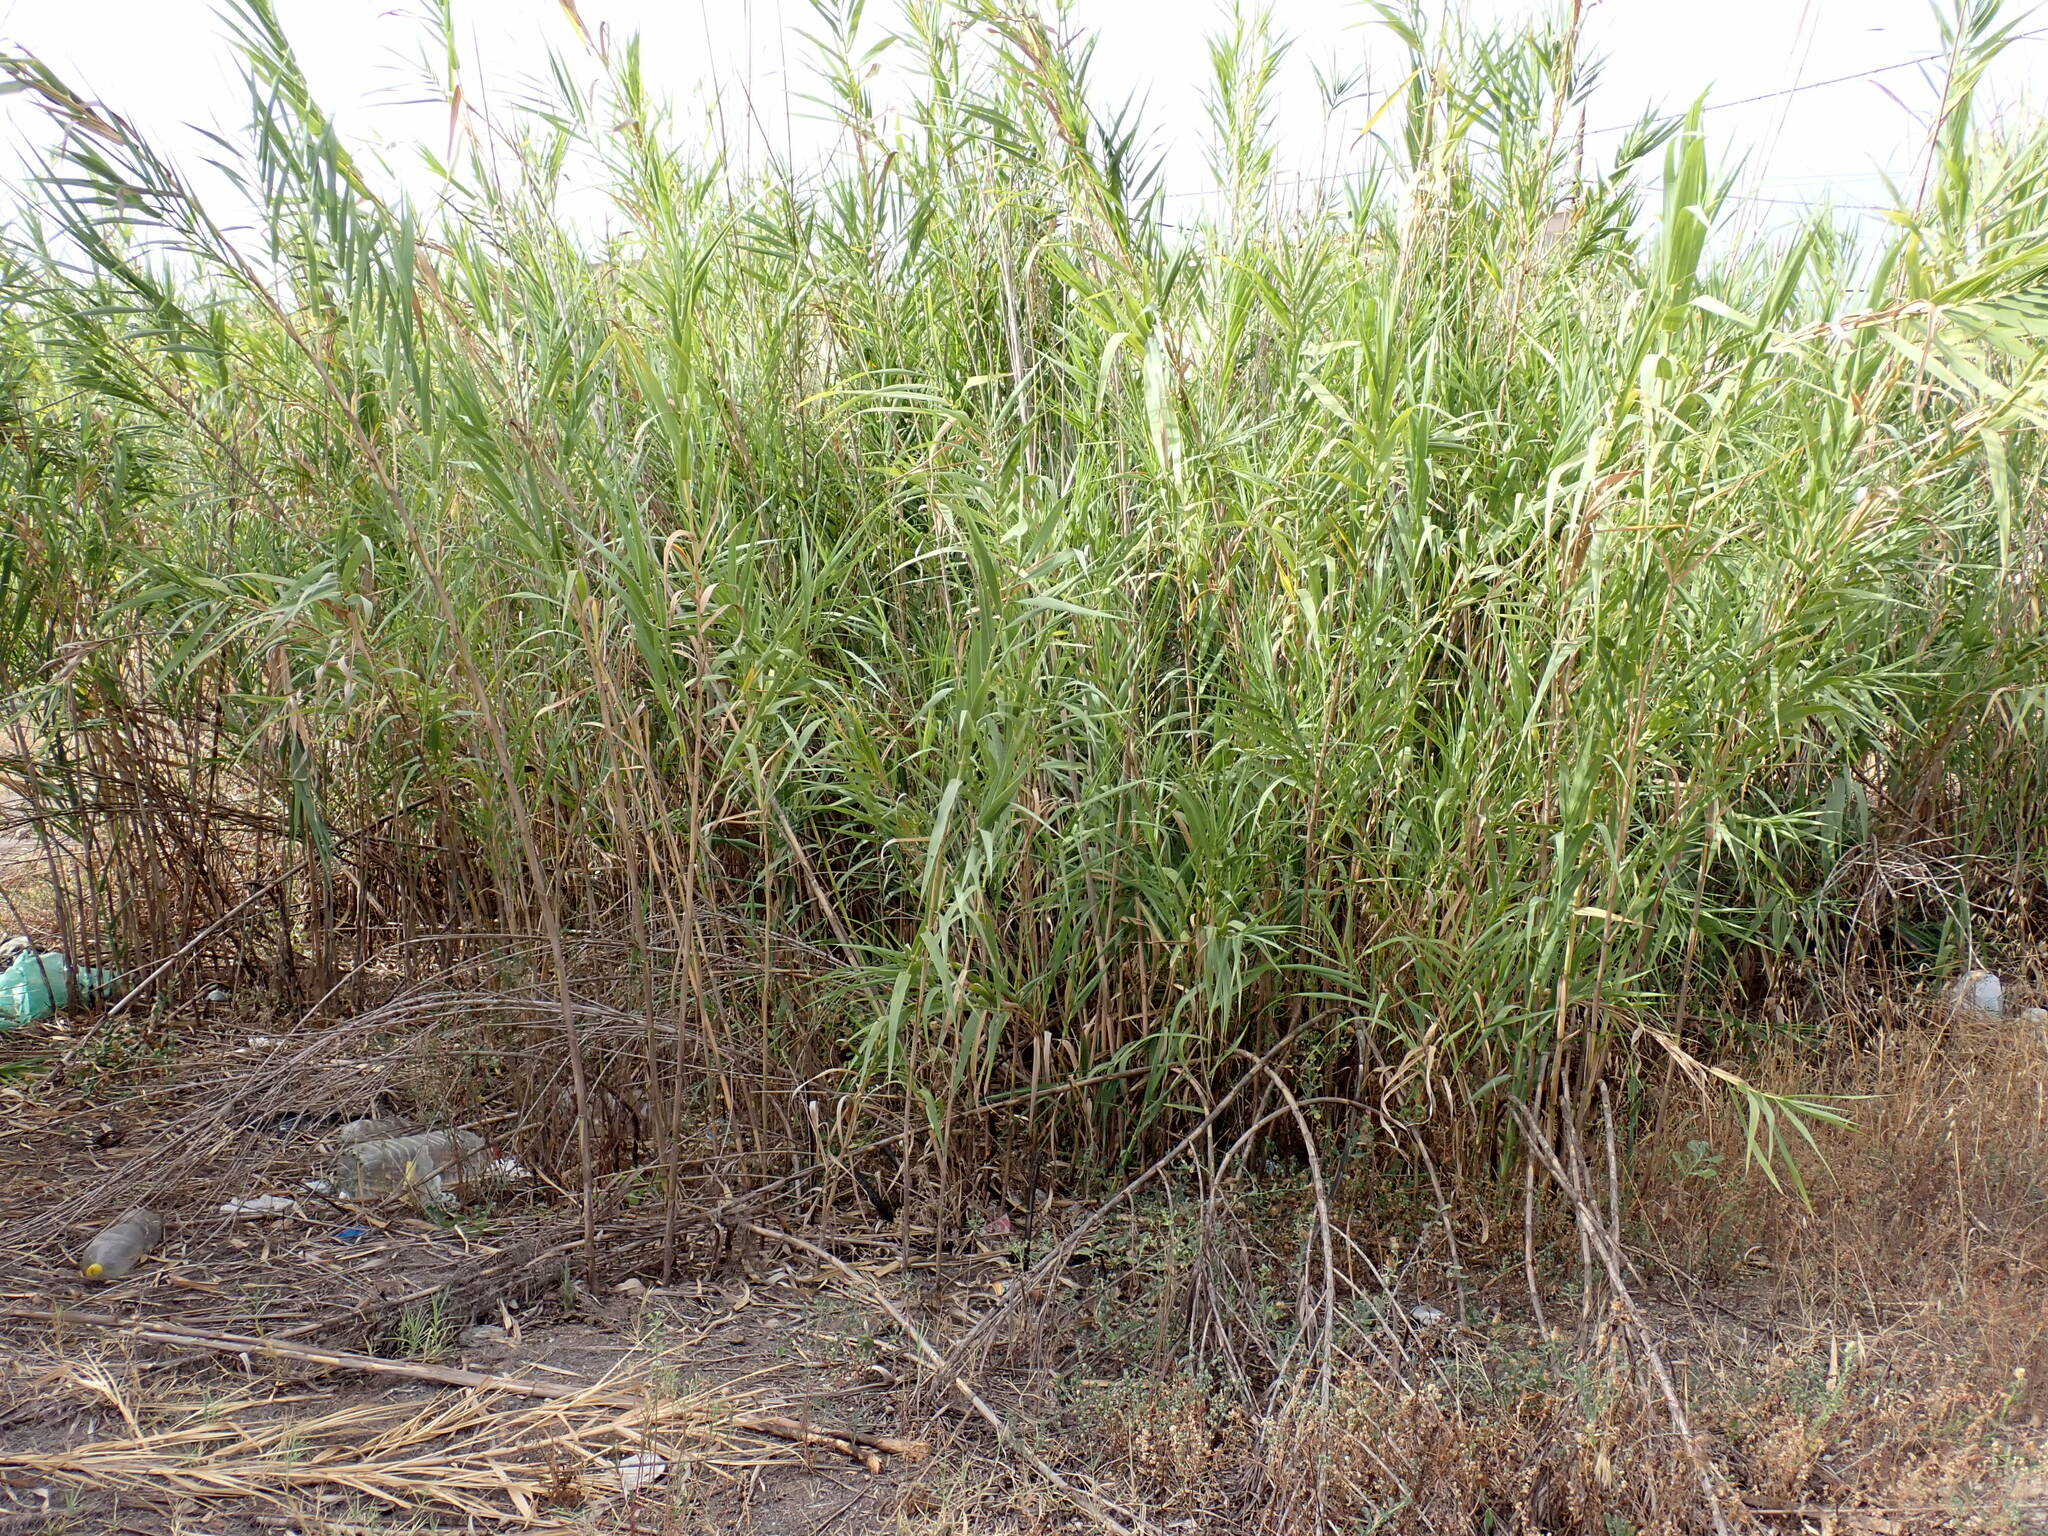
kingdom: Plantae
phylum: Tracheophyta
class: Liliopsida
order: Poales
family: Poaceae
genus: Arundo
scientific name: Arundo donax
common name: Giant reed
